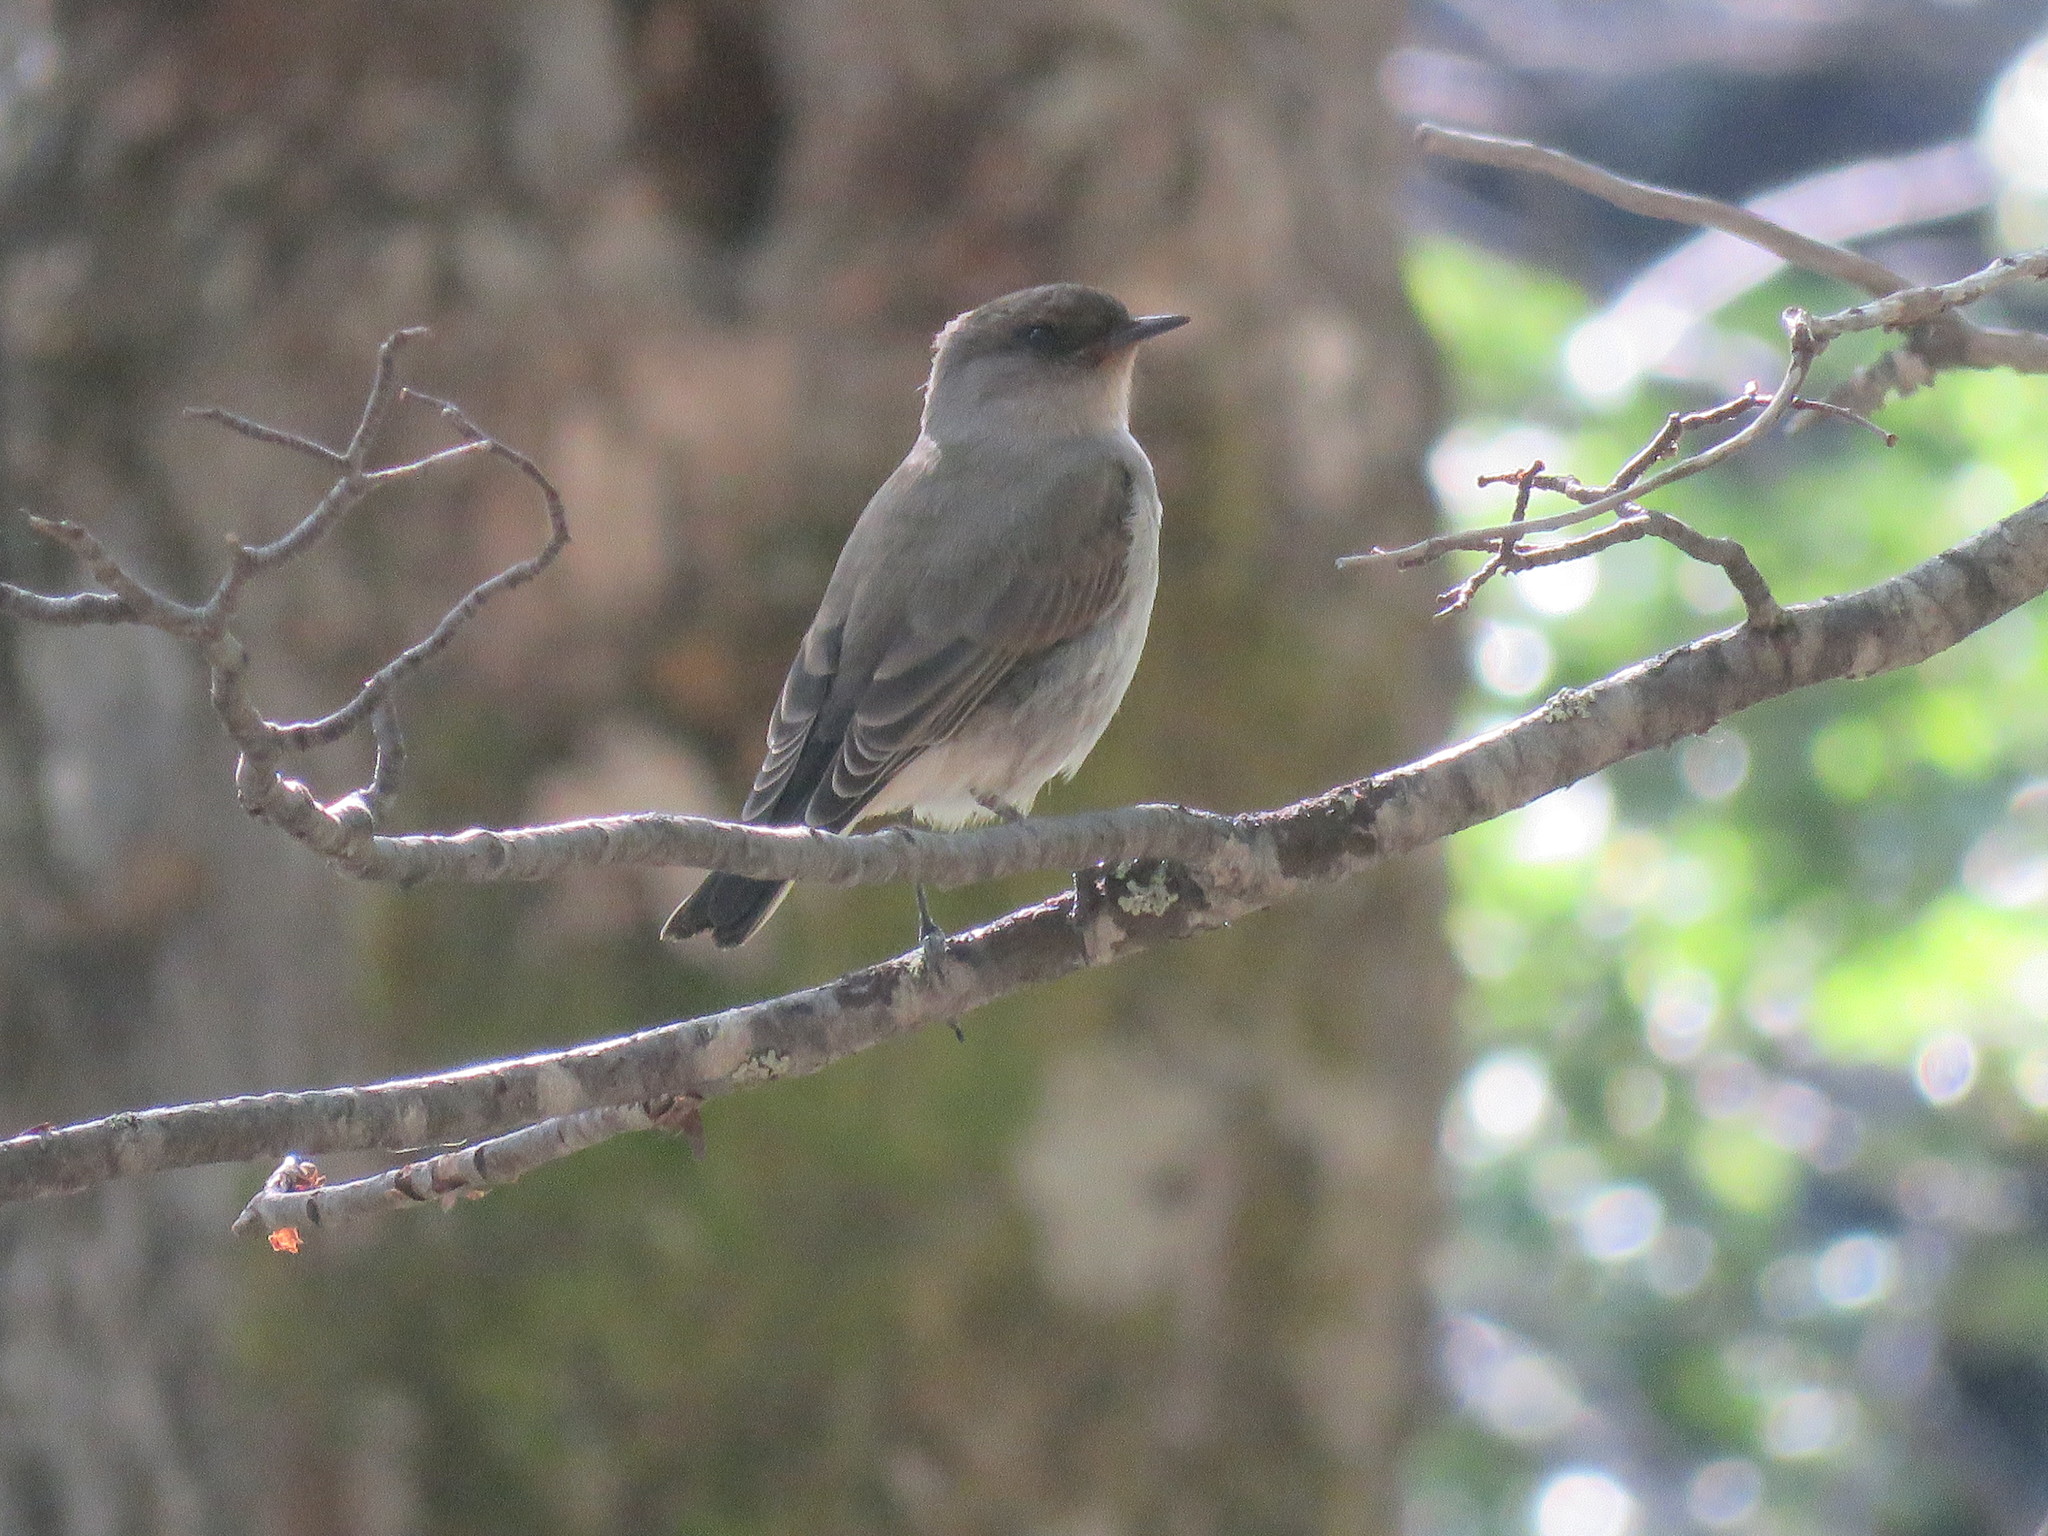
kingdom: Animalia
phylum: Chordata
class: Aves
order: Passeriformes
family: Tyrannidae
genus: Muscisaxicola
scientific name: Muscisaxicola maclovianus
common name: Dark-faced ground tyrant
